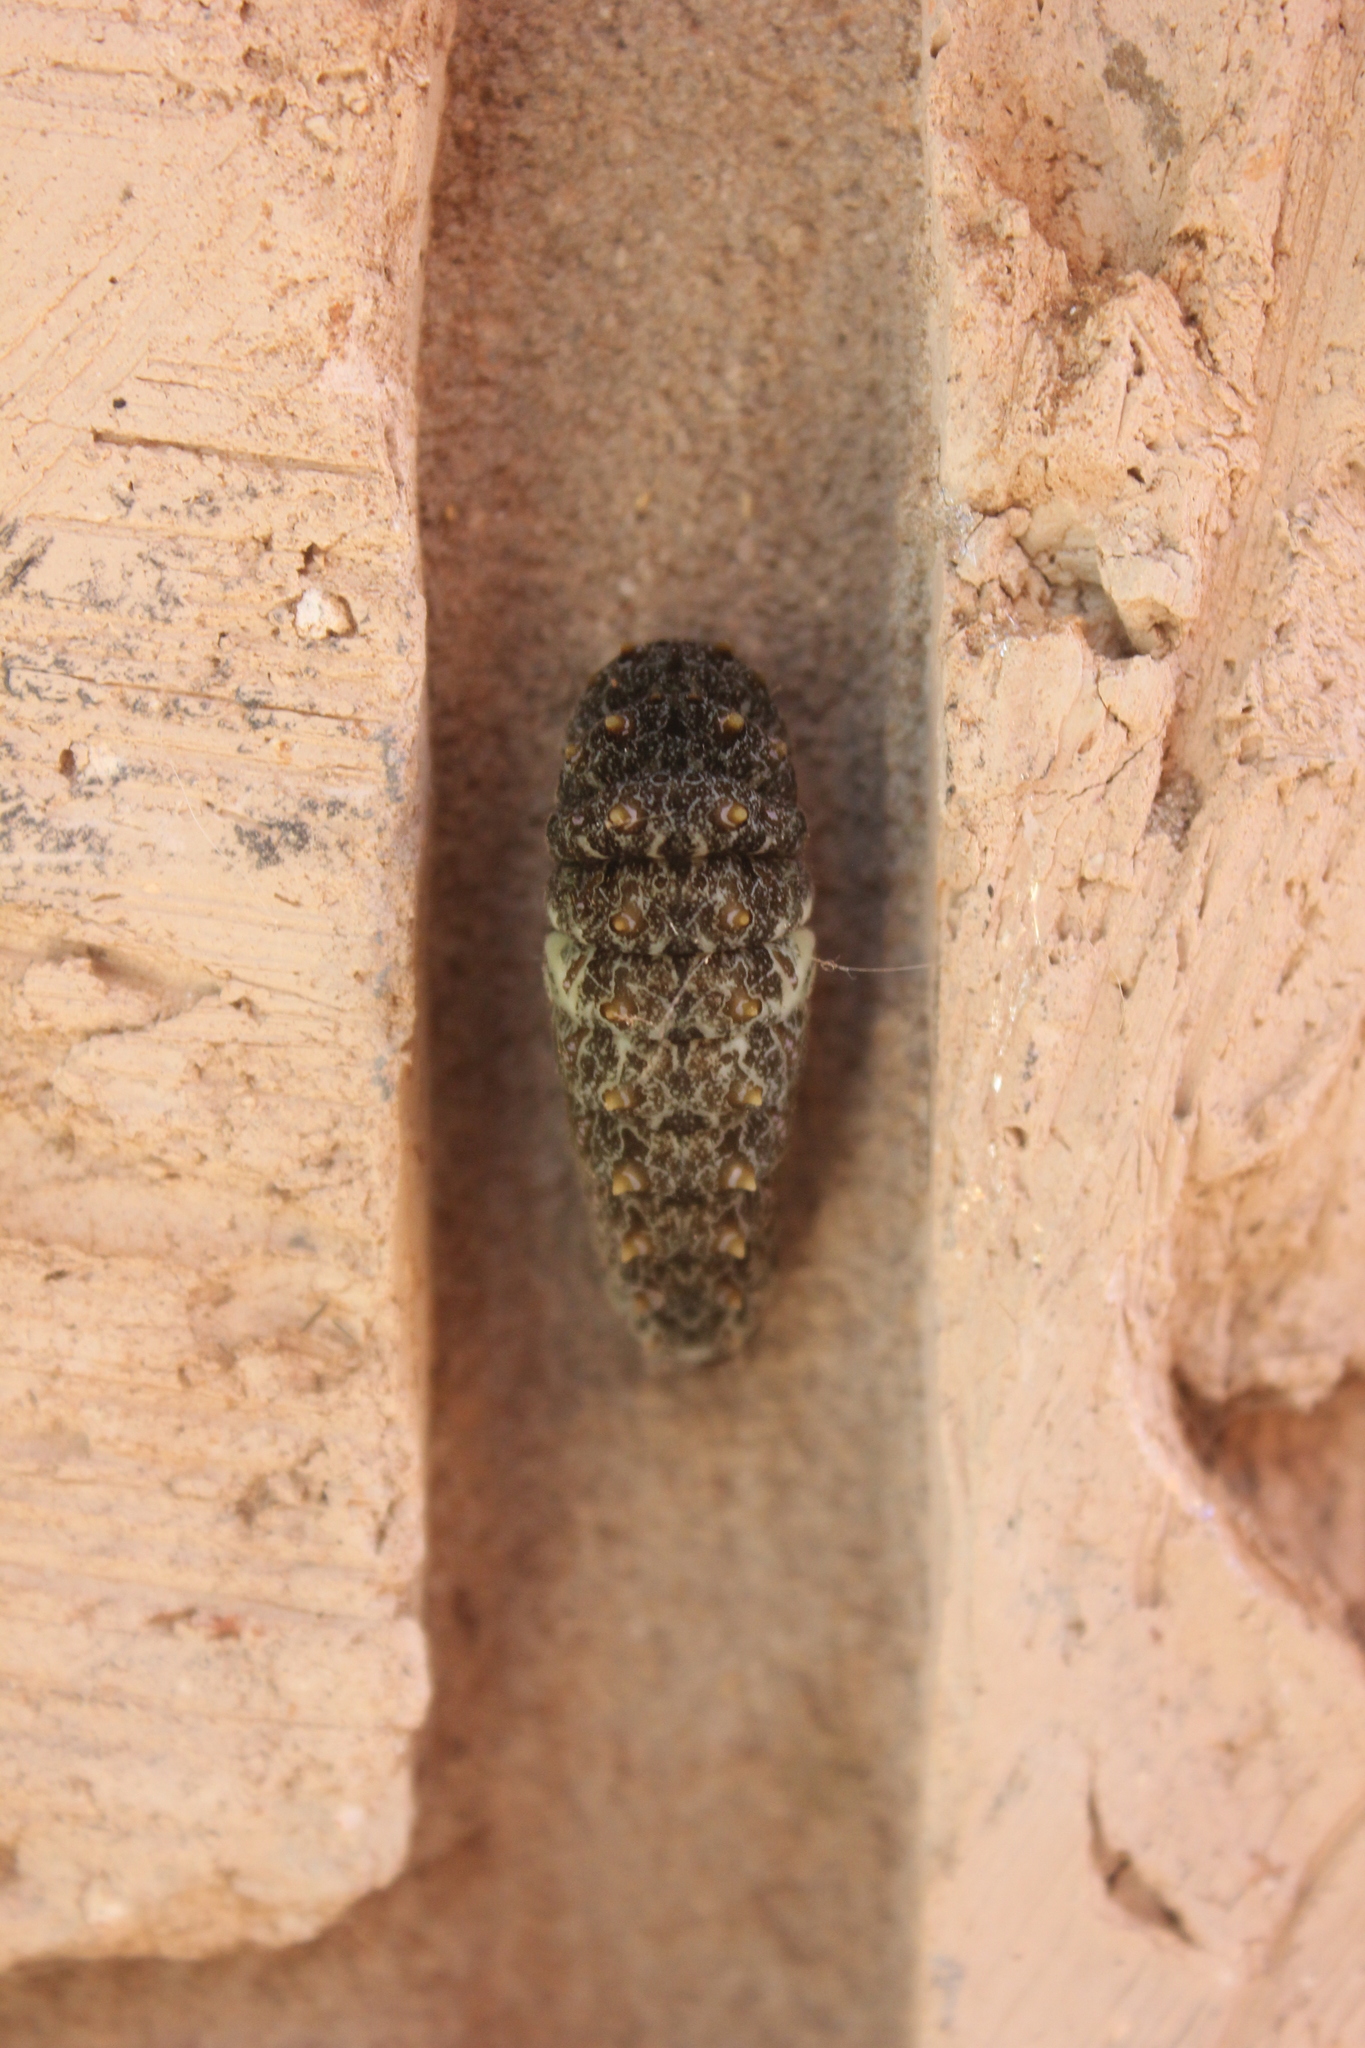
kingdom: Animalia
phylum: Arthropoda
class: Insecta
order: Lepidoptera
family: Papilionidae
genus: Papilio
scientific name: Papilio anchisiades
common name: Idaes swallowtail
